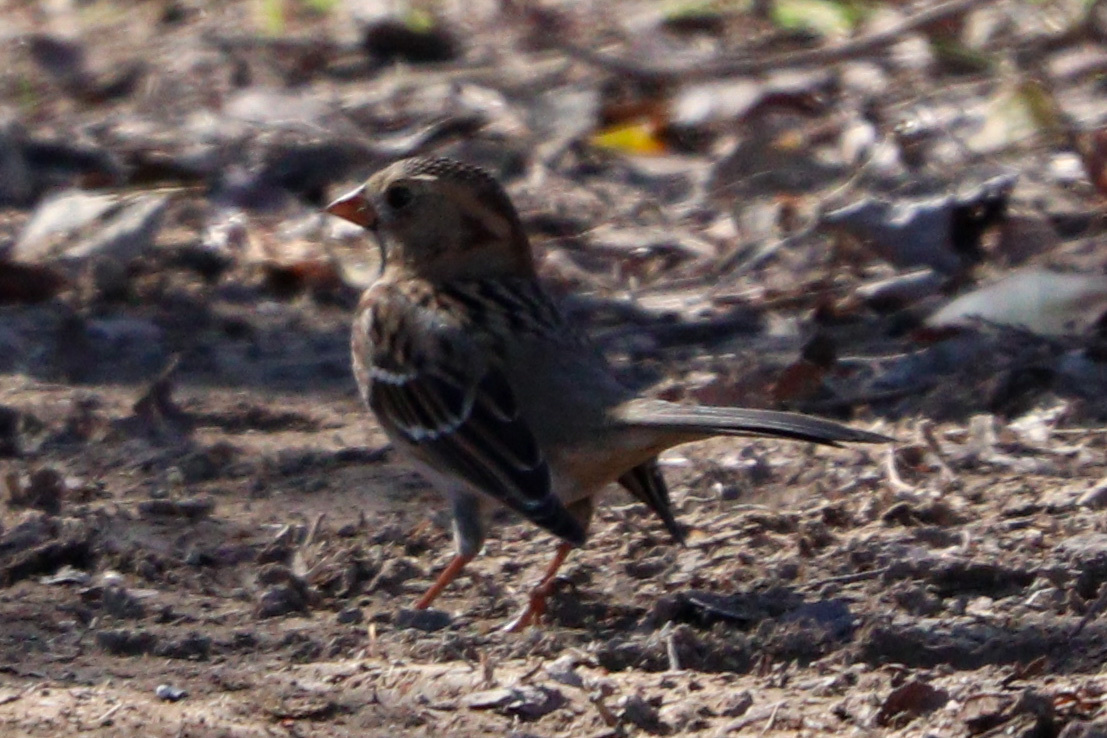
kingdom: Animalia
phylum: Chordata
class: Aves
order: Passeriformes
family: Passerellidae
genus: Zonotrichia
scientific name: Zonotrichia querula
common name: Harris's sparrow
